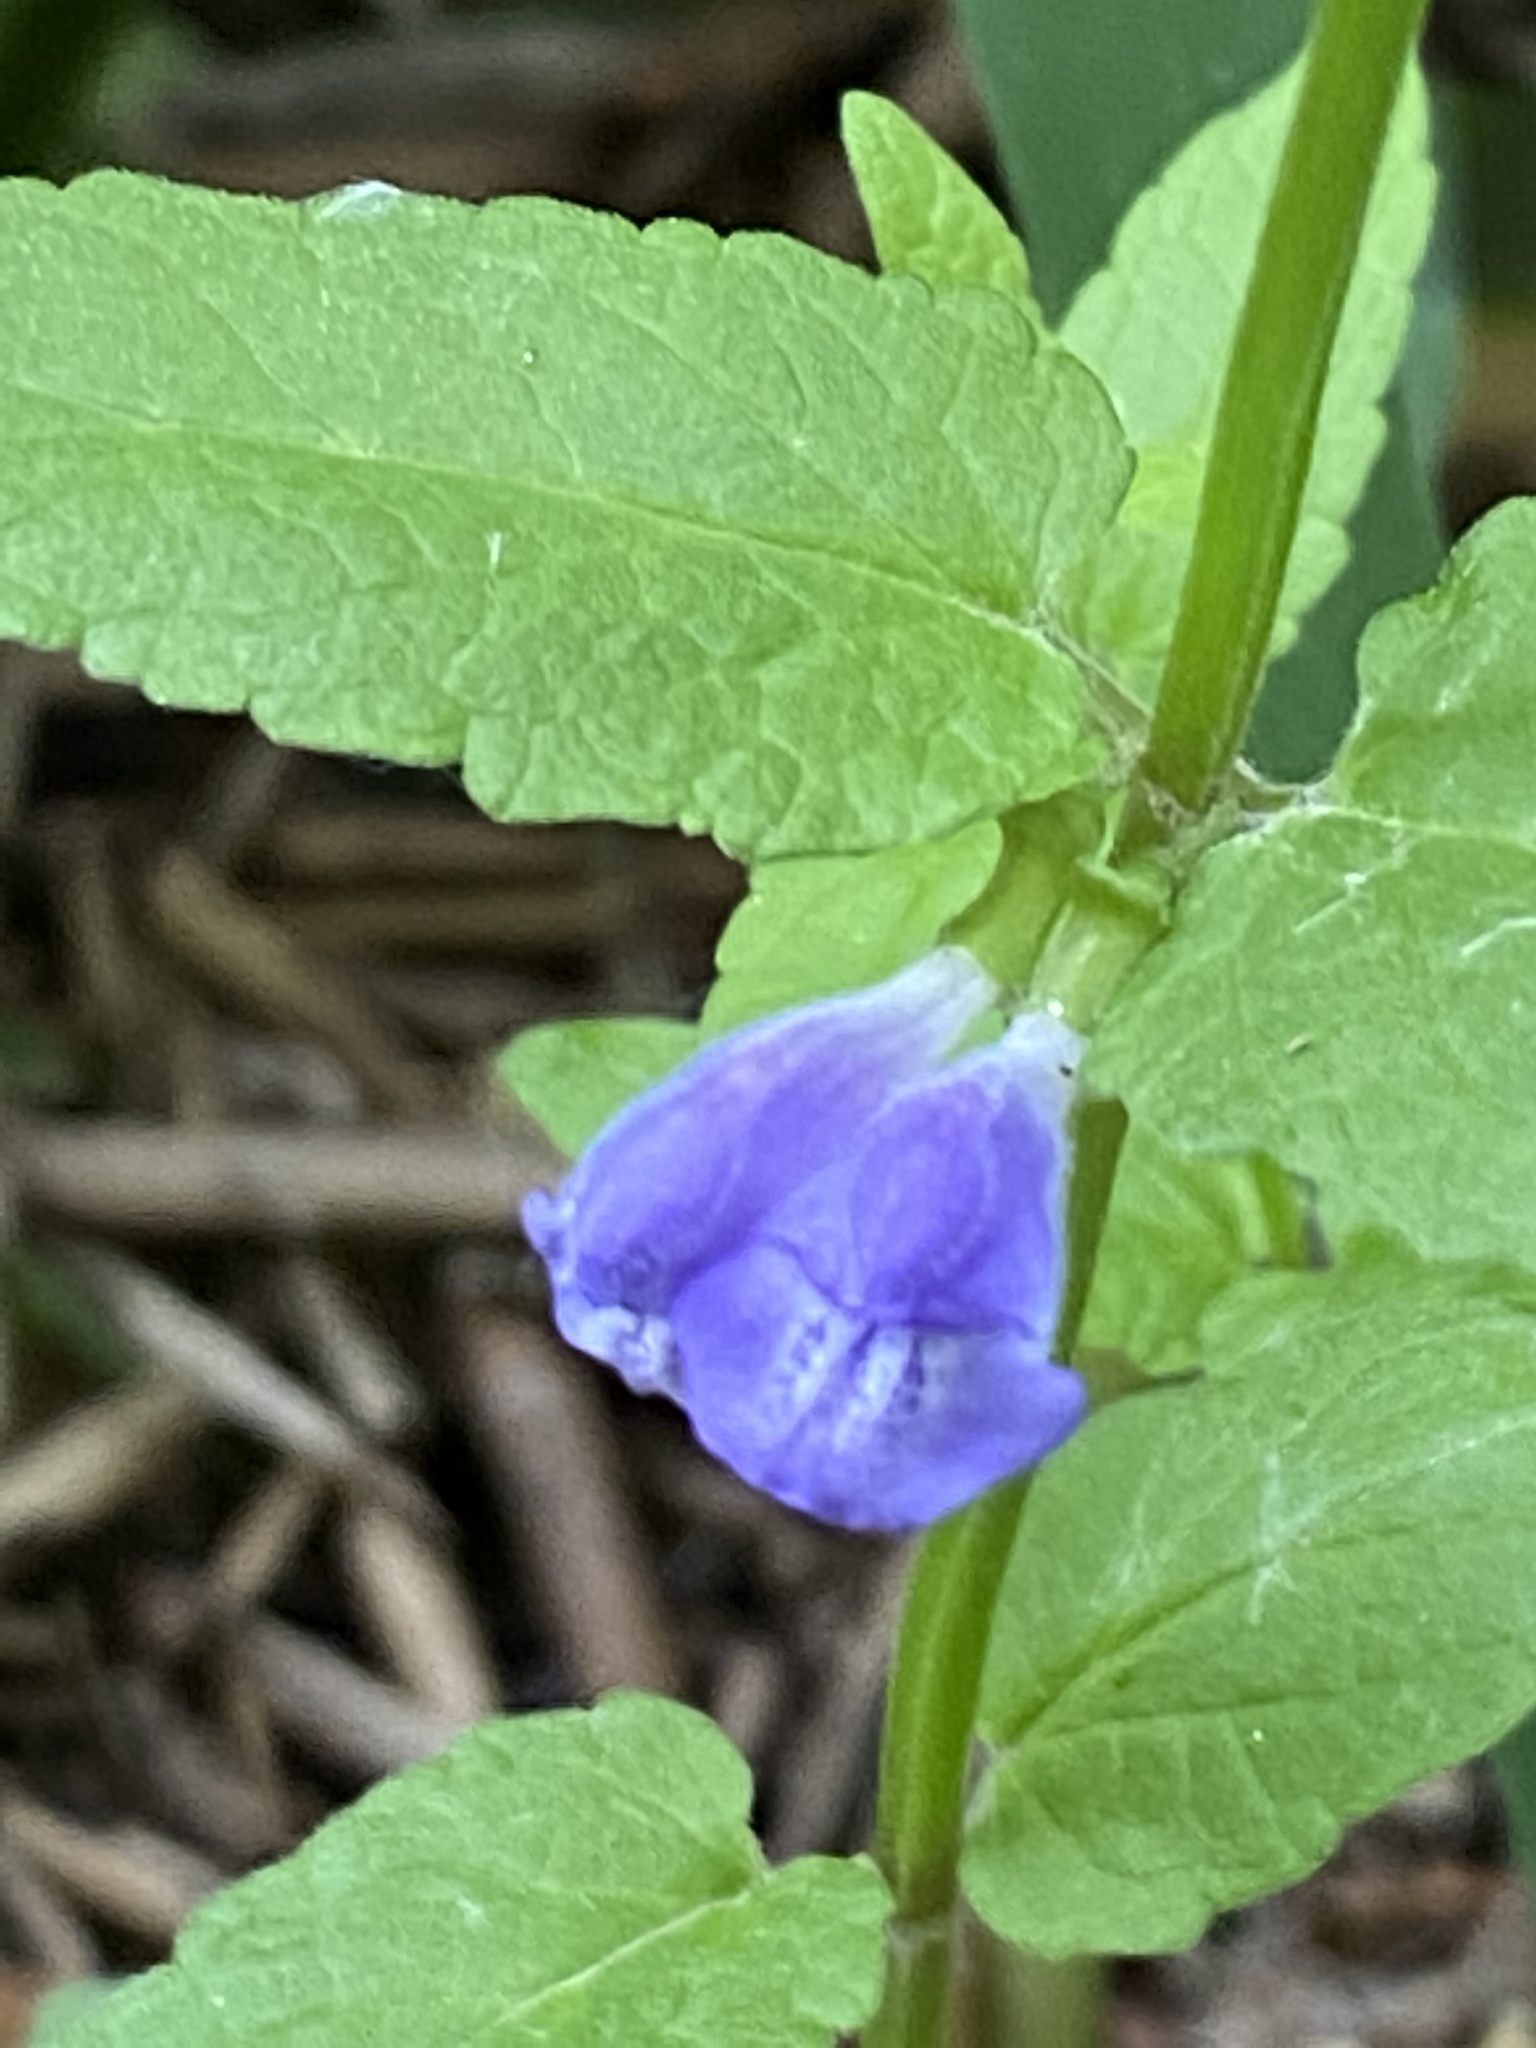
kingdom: Plantae
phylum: Tracheophyta
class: Magnoliopsida
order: Lamiales
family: Lamiaceae
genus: Scutellaria
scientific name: Scutellaria galericulata
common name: Skullcap
